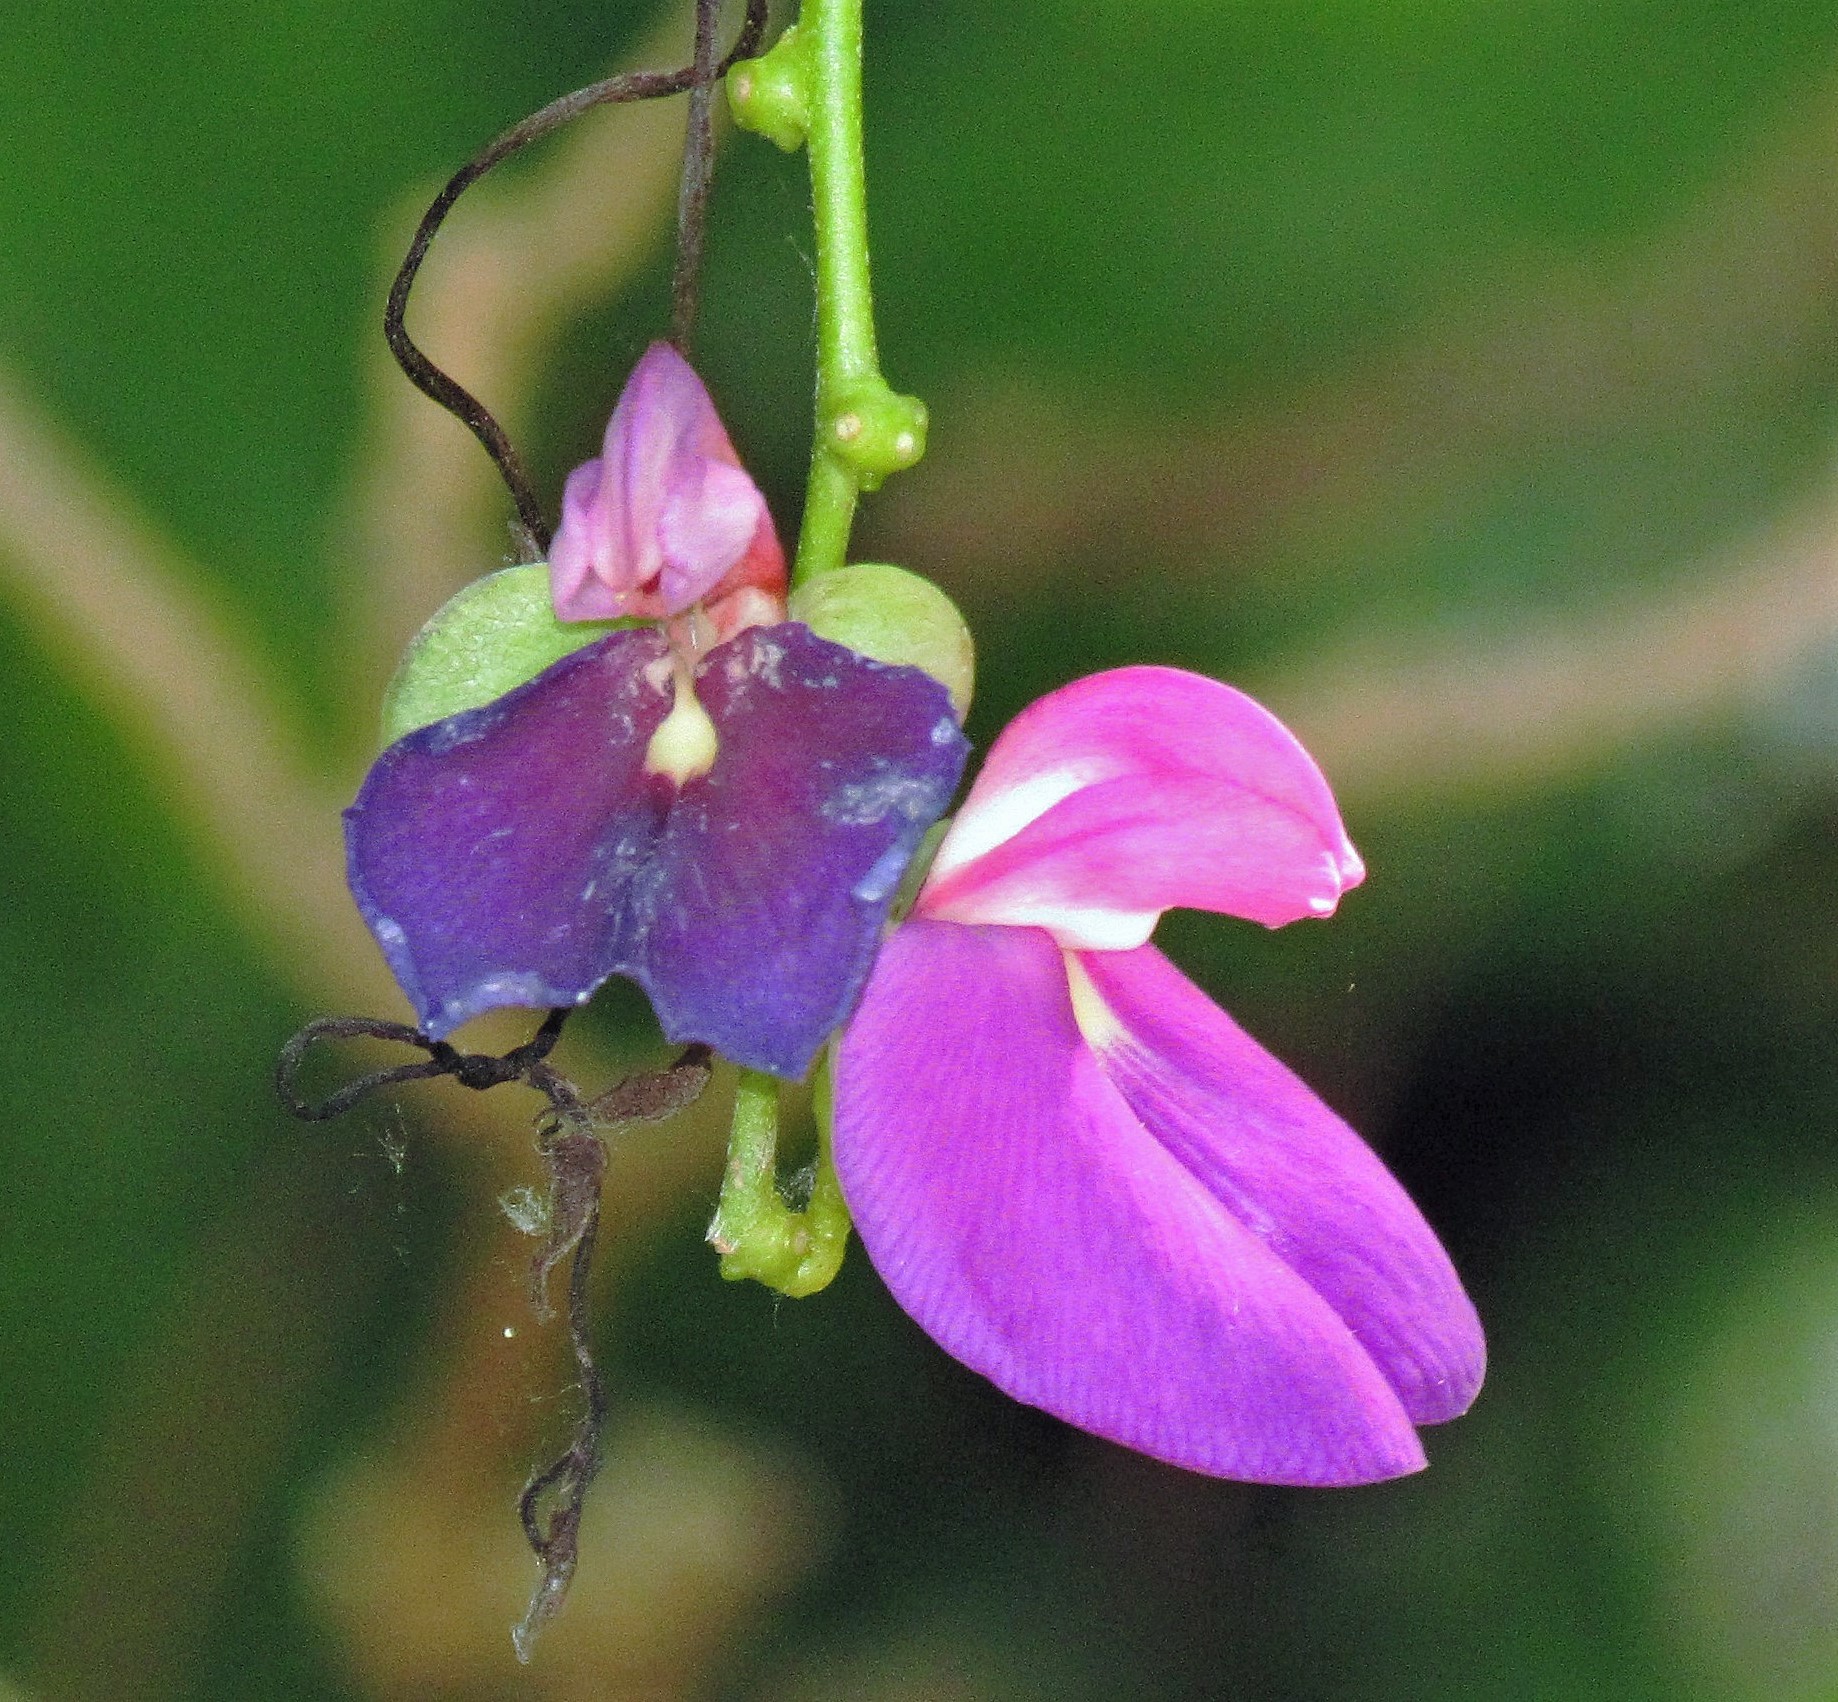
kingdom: Plantae
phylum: Tracheophyta
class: Magnoliopsida
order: Fabales
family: Fabaceae
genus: Canavalia
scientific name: Canavalia bonariensis
